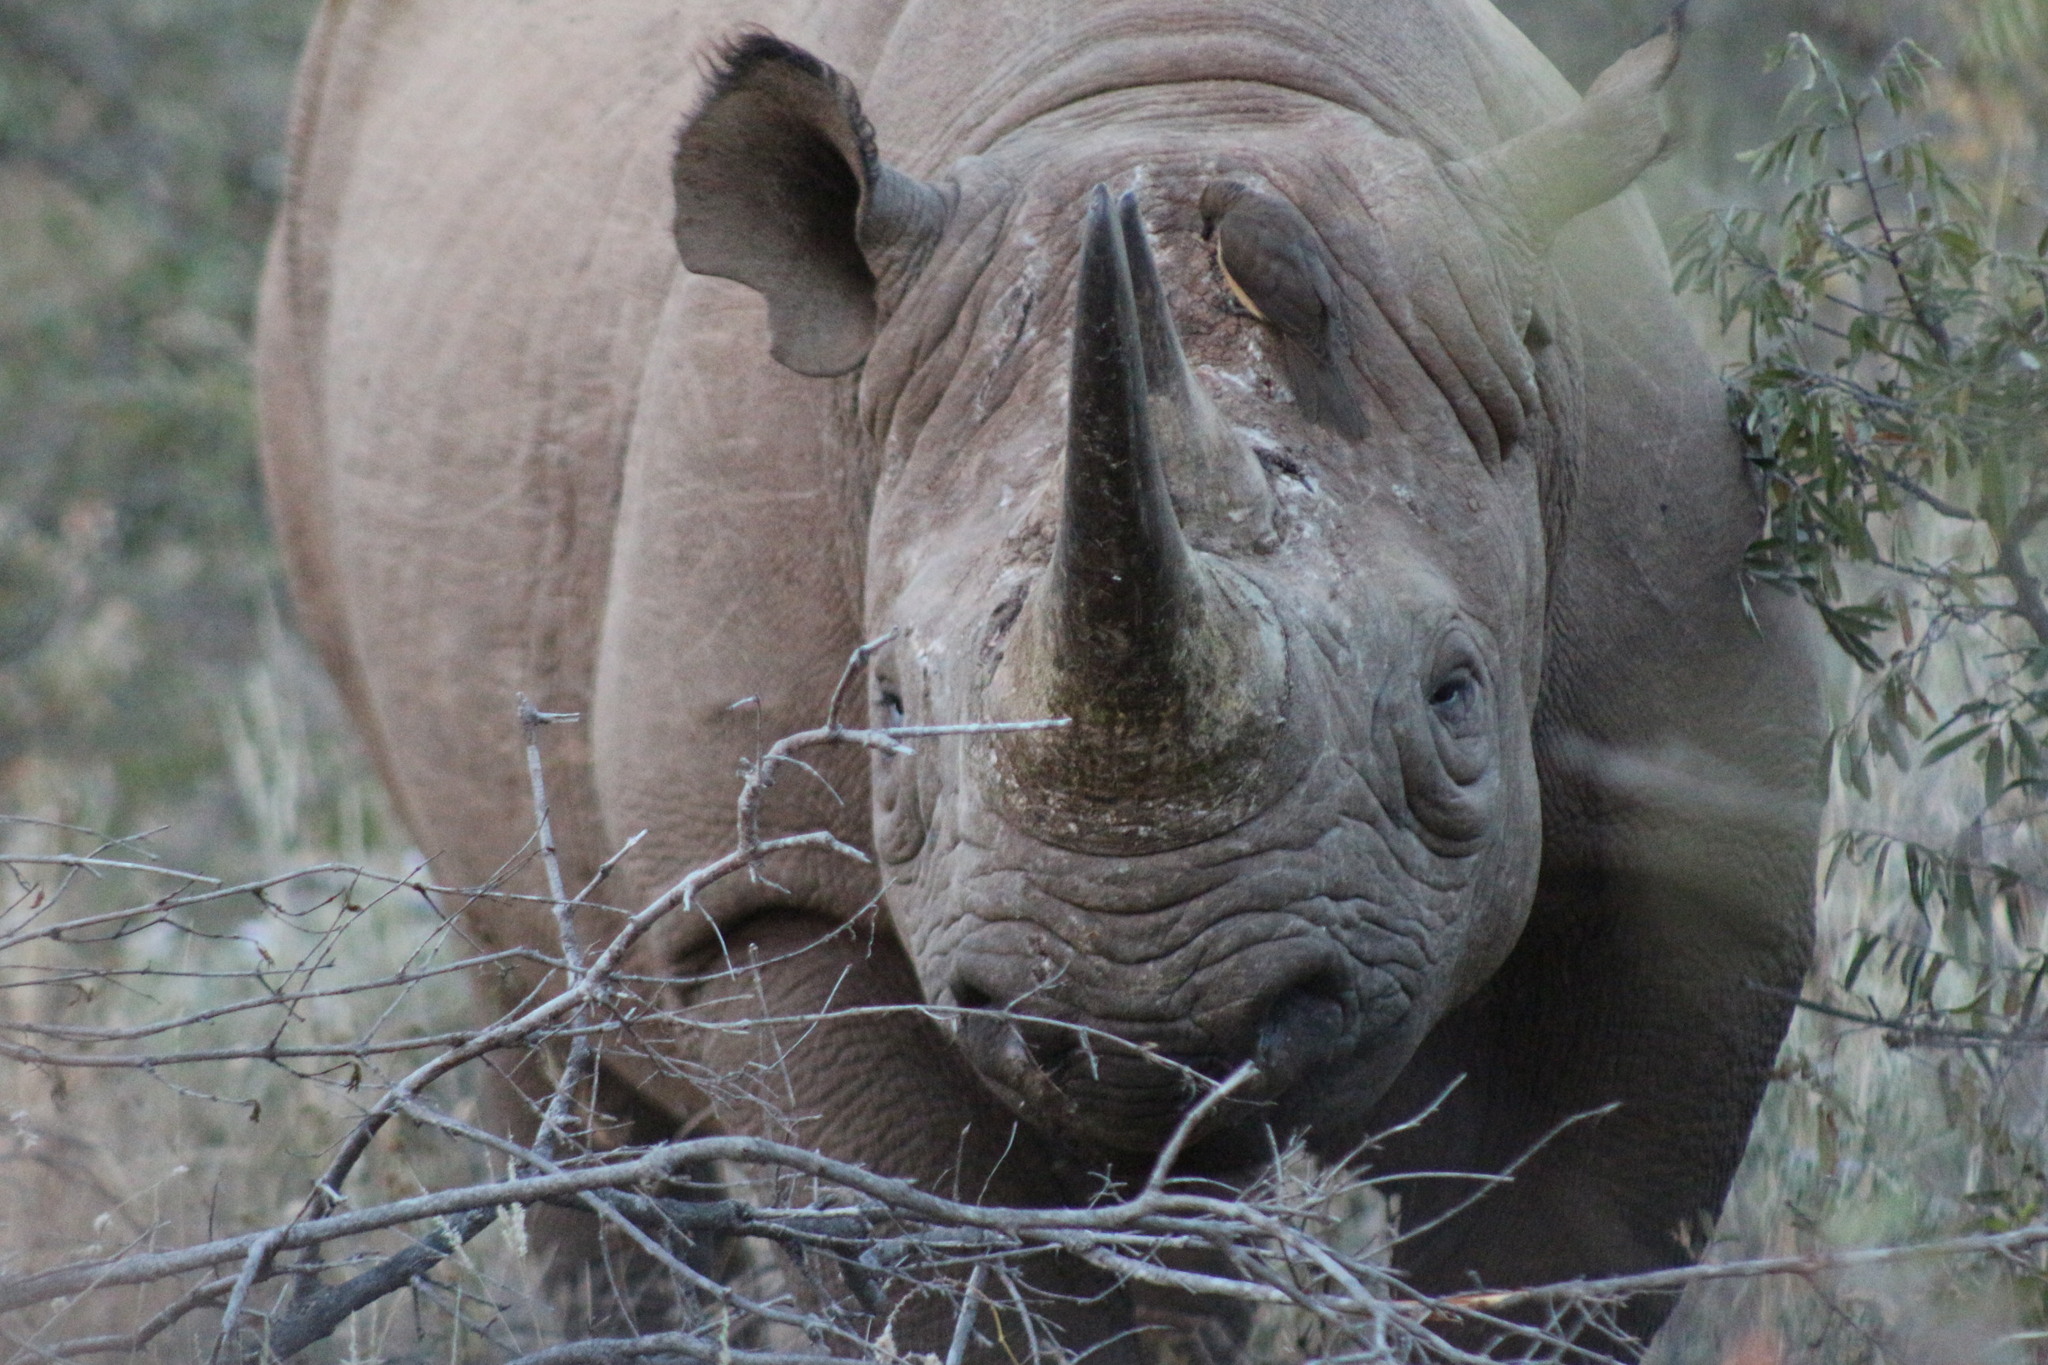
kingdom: Animalia
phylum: Chordata
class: Aves
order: Passeriformes
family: Buphagidae
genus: Buphagus
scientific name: Buphagus erythrorhynchus
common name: Red-billed oxpecker
